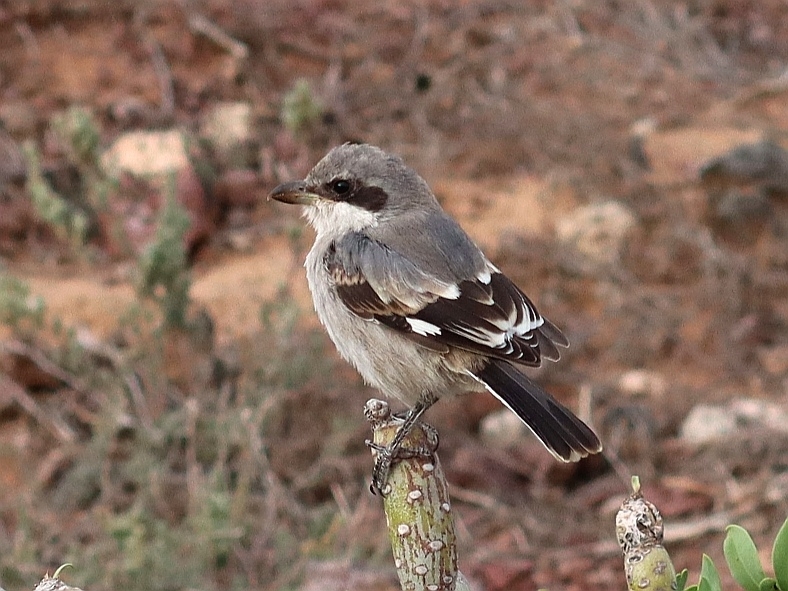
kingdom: Animalia
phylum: Chordata
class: Aves
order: Passeriformes
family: Laniidae
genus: Lanius
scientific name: Lanius excubitor
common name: Great grey shrike
